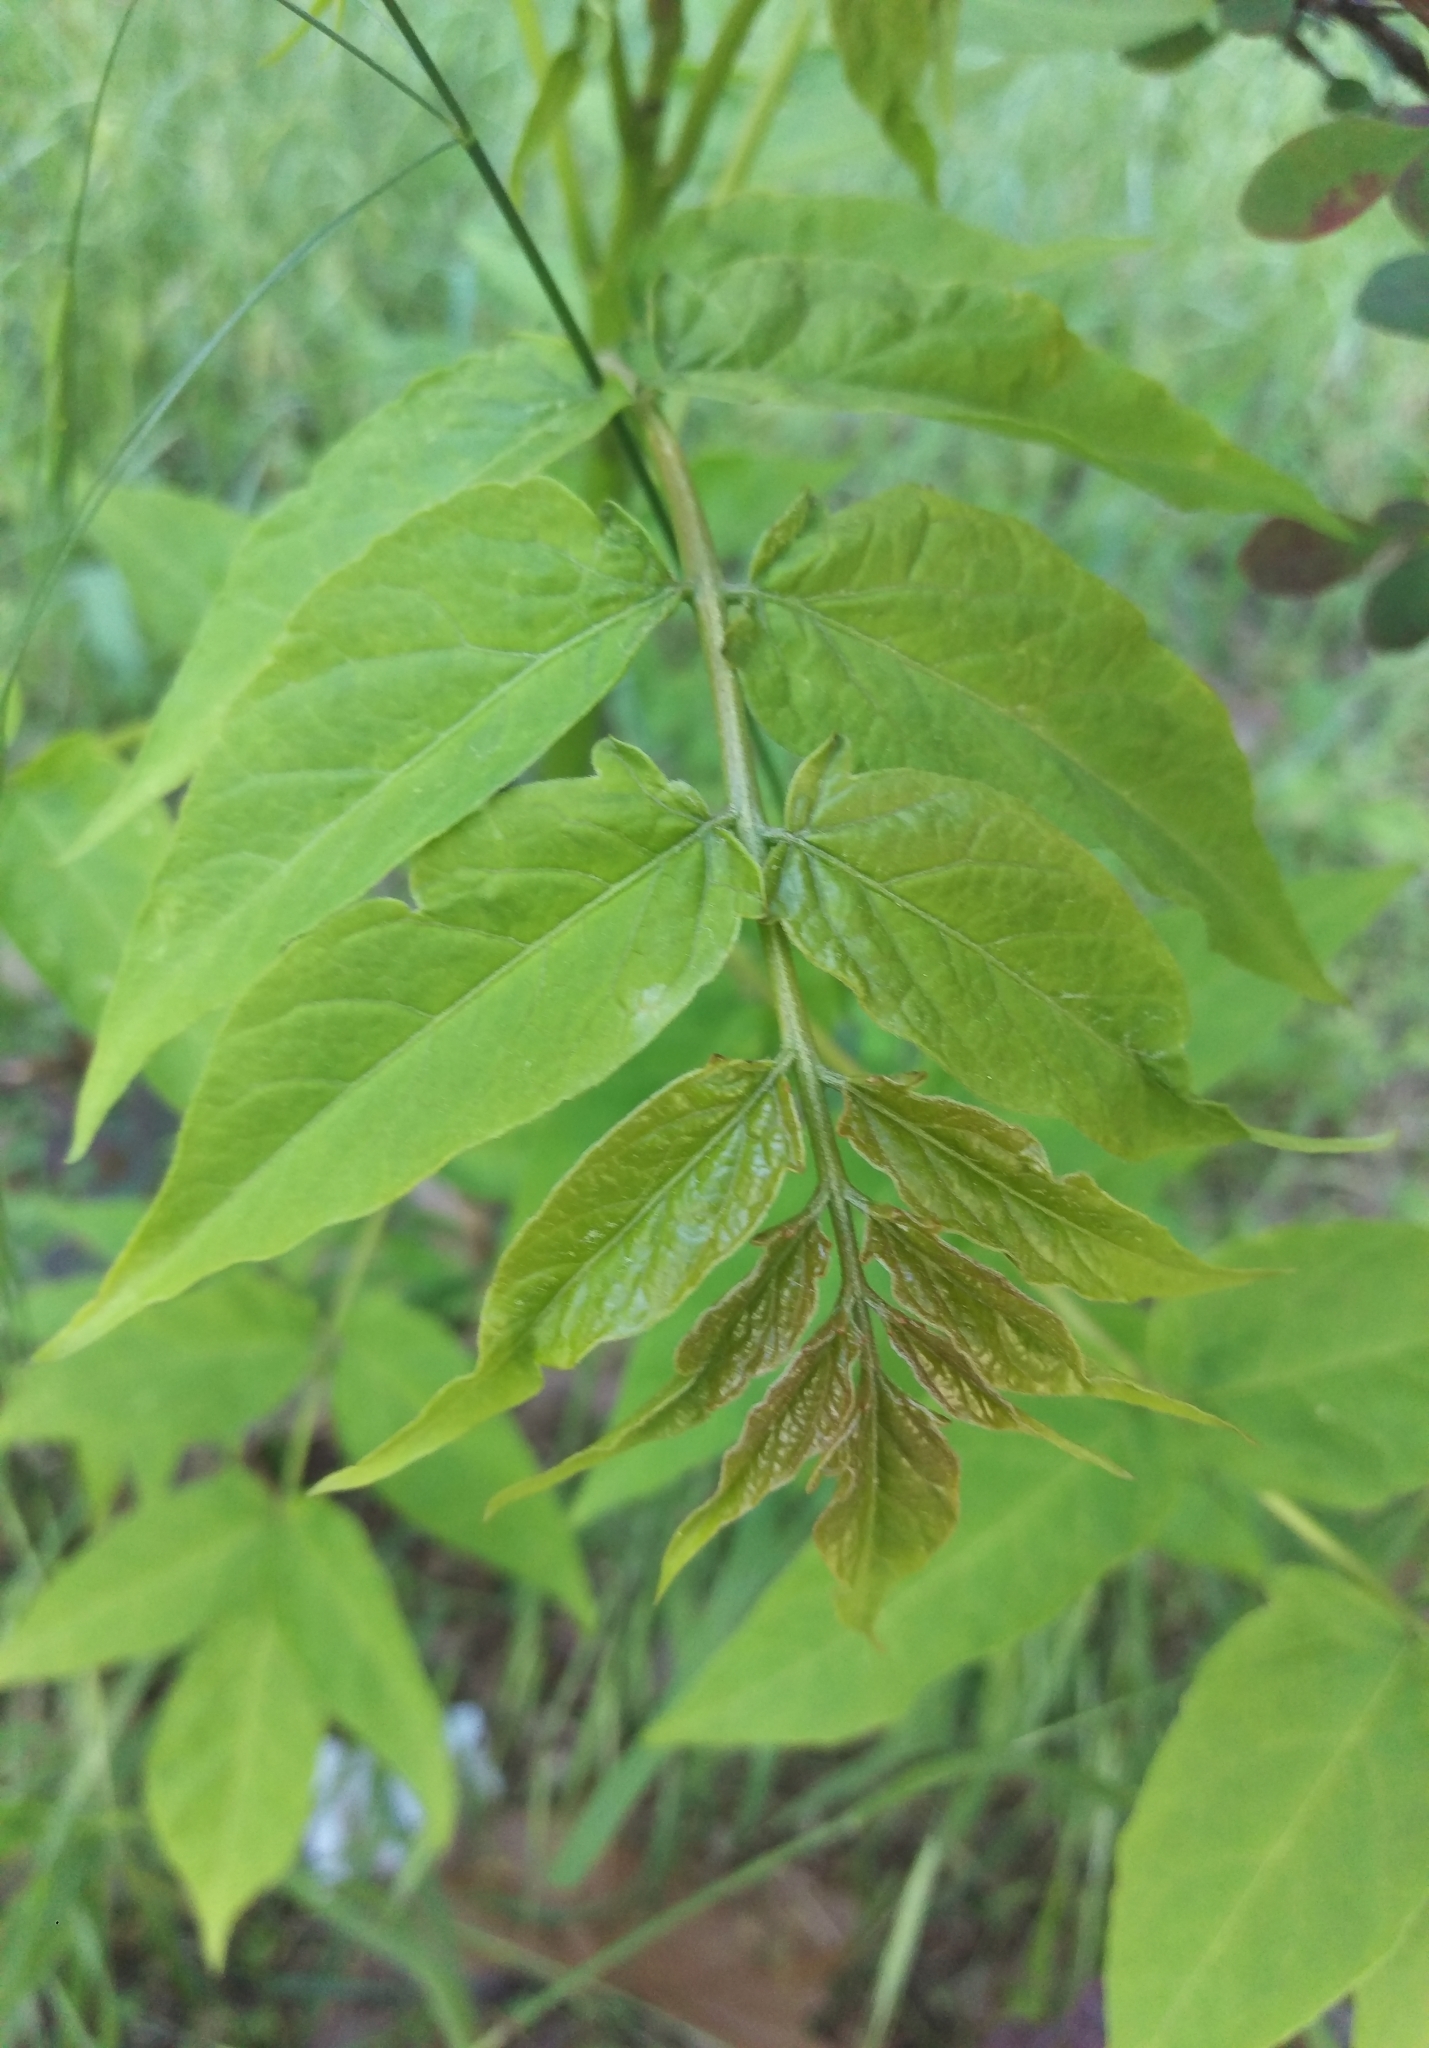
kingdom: Plantae
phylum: Tracheophyta
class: Magnoliopsida
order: Sapindales
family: Simaroubaceae
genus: Ailanthus
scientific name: Ailanthus altissima
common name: Tree-of-heaven
